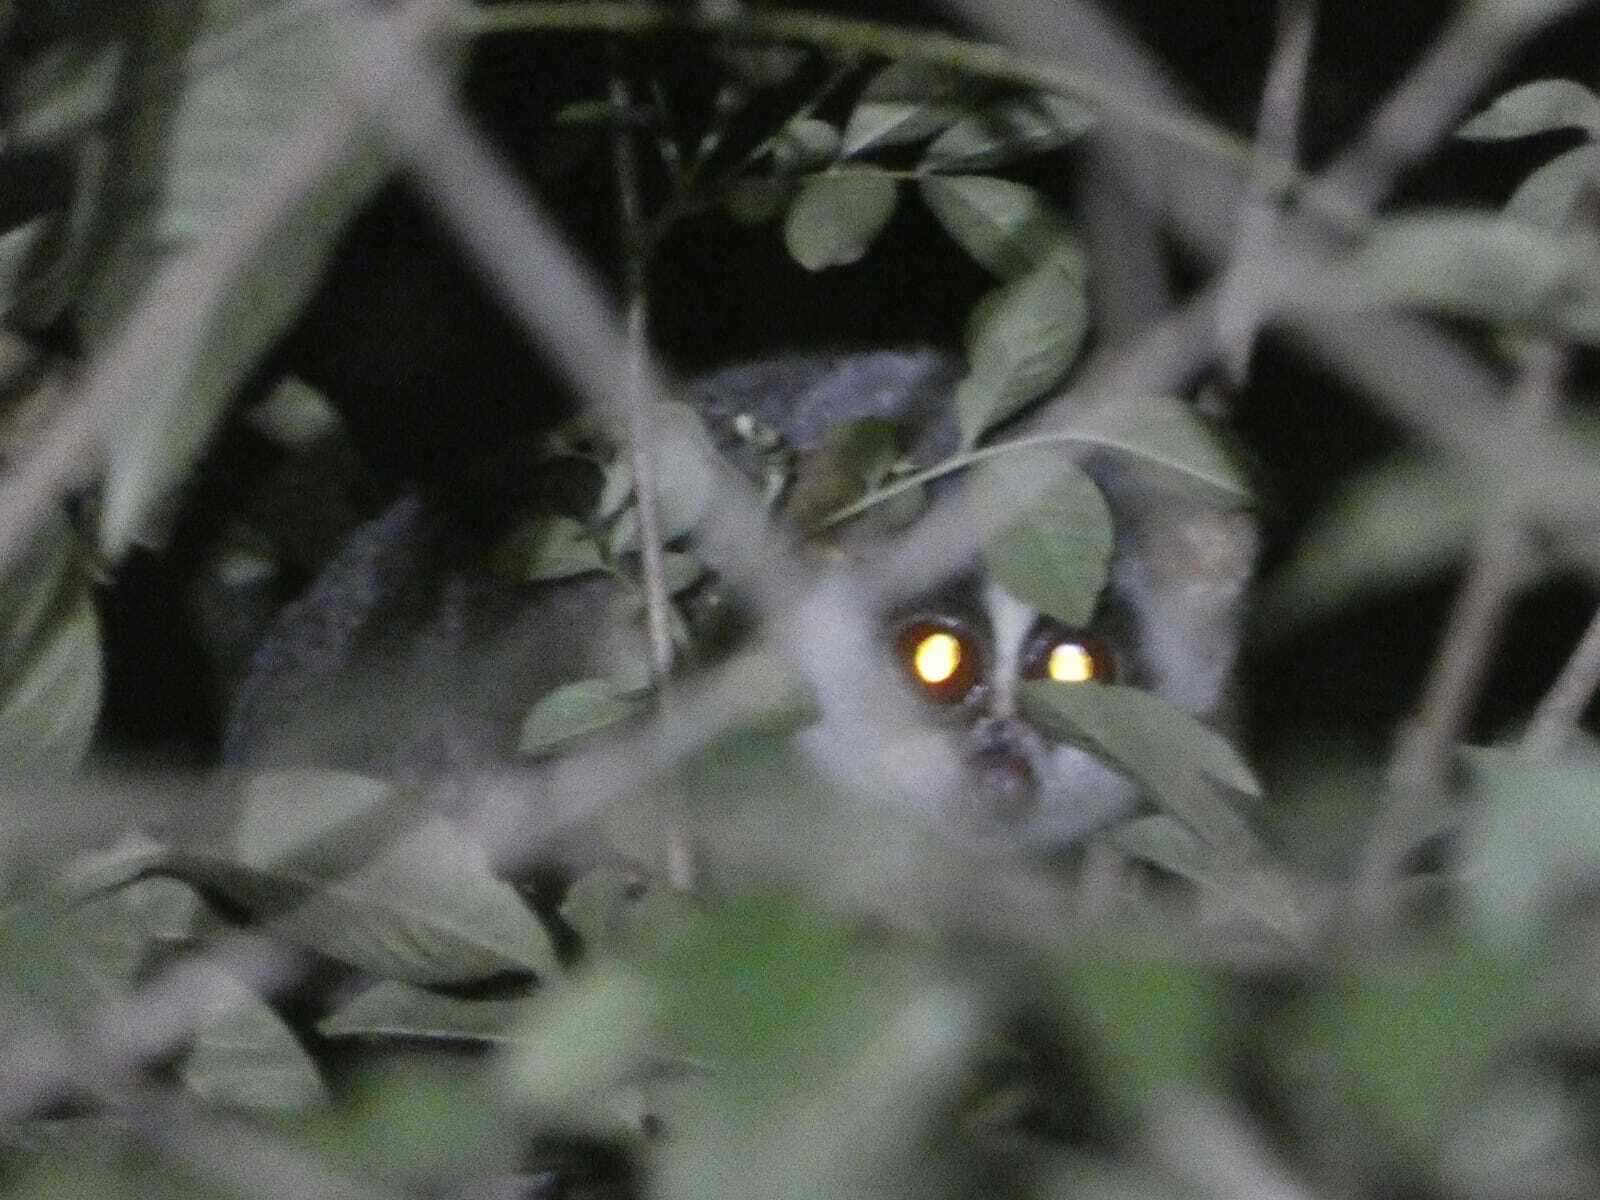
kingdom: Animalia
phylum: Chordata
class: Mammalia
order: Primates
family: Lorisidae
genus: Loris
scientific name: Loris lydekkerianus
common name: Gray slender loris
